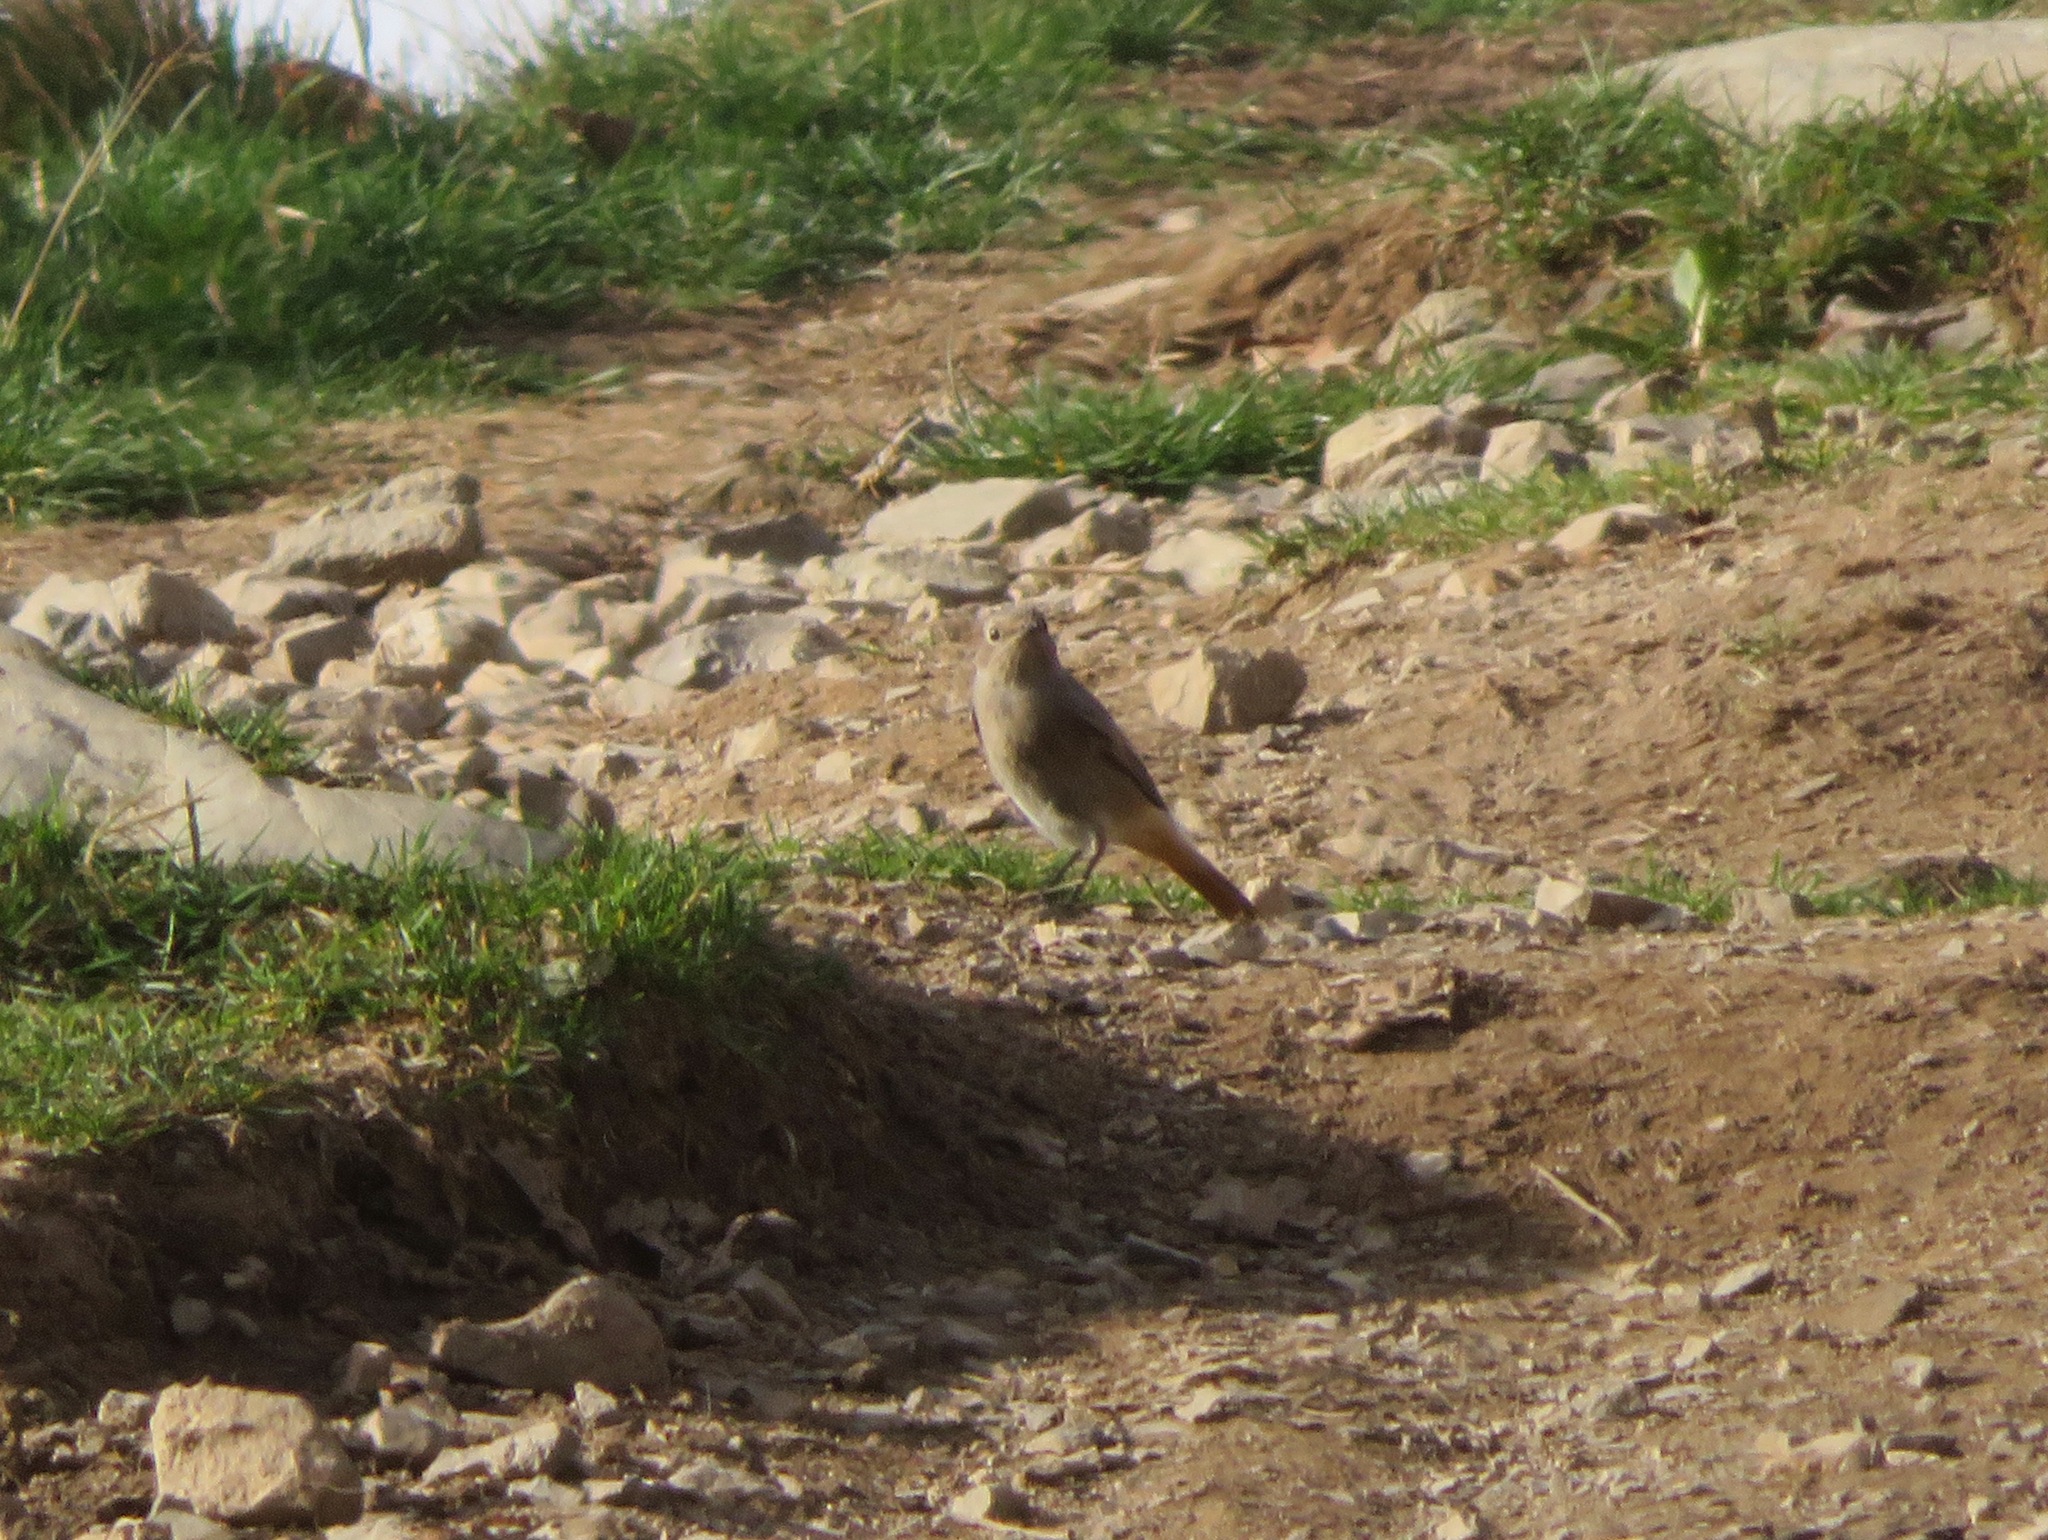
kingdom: Animalia
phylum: Chordata
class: Aves
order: Passeriformes
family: Muscicapidae
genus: Phoenicurus
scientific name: Phoenicurus ochruros
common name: Black redstart
